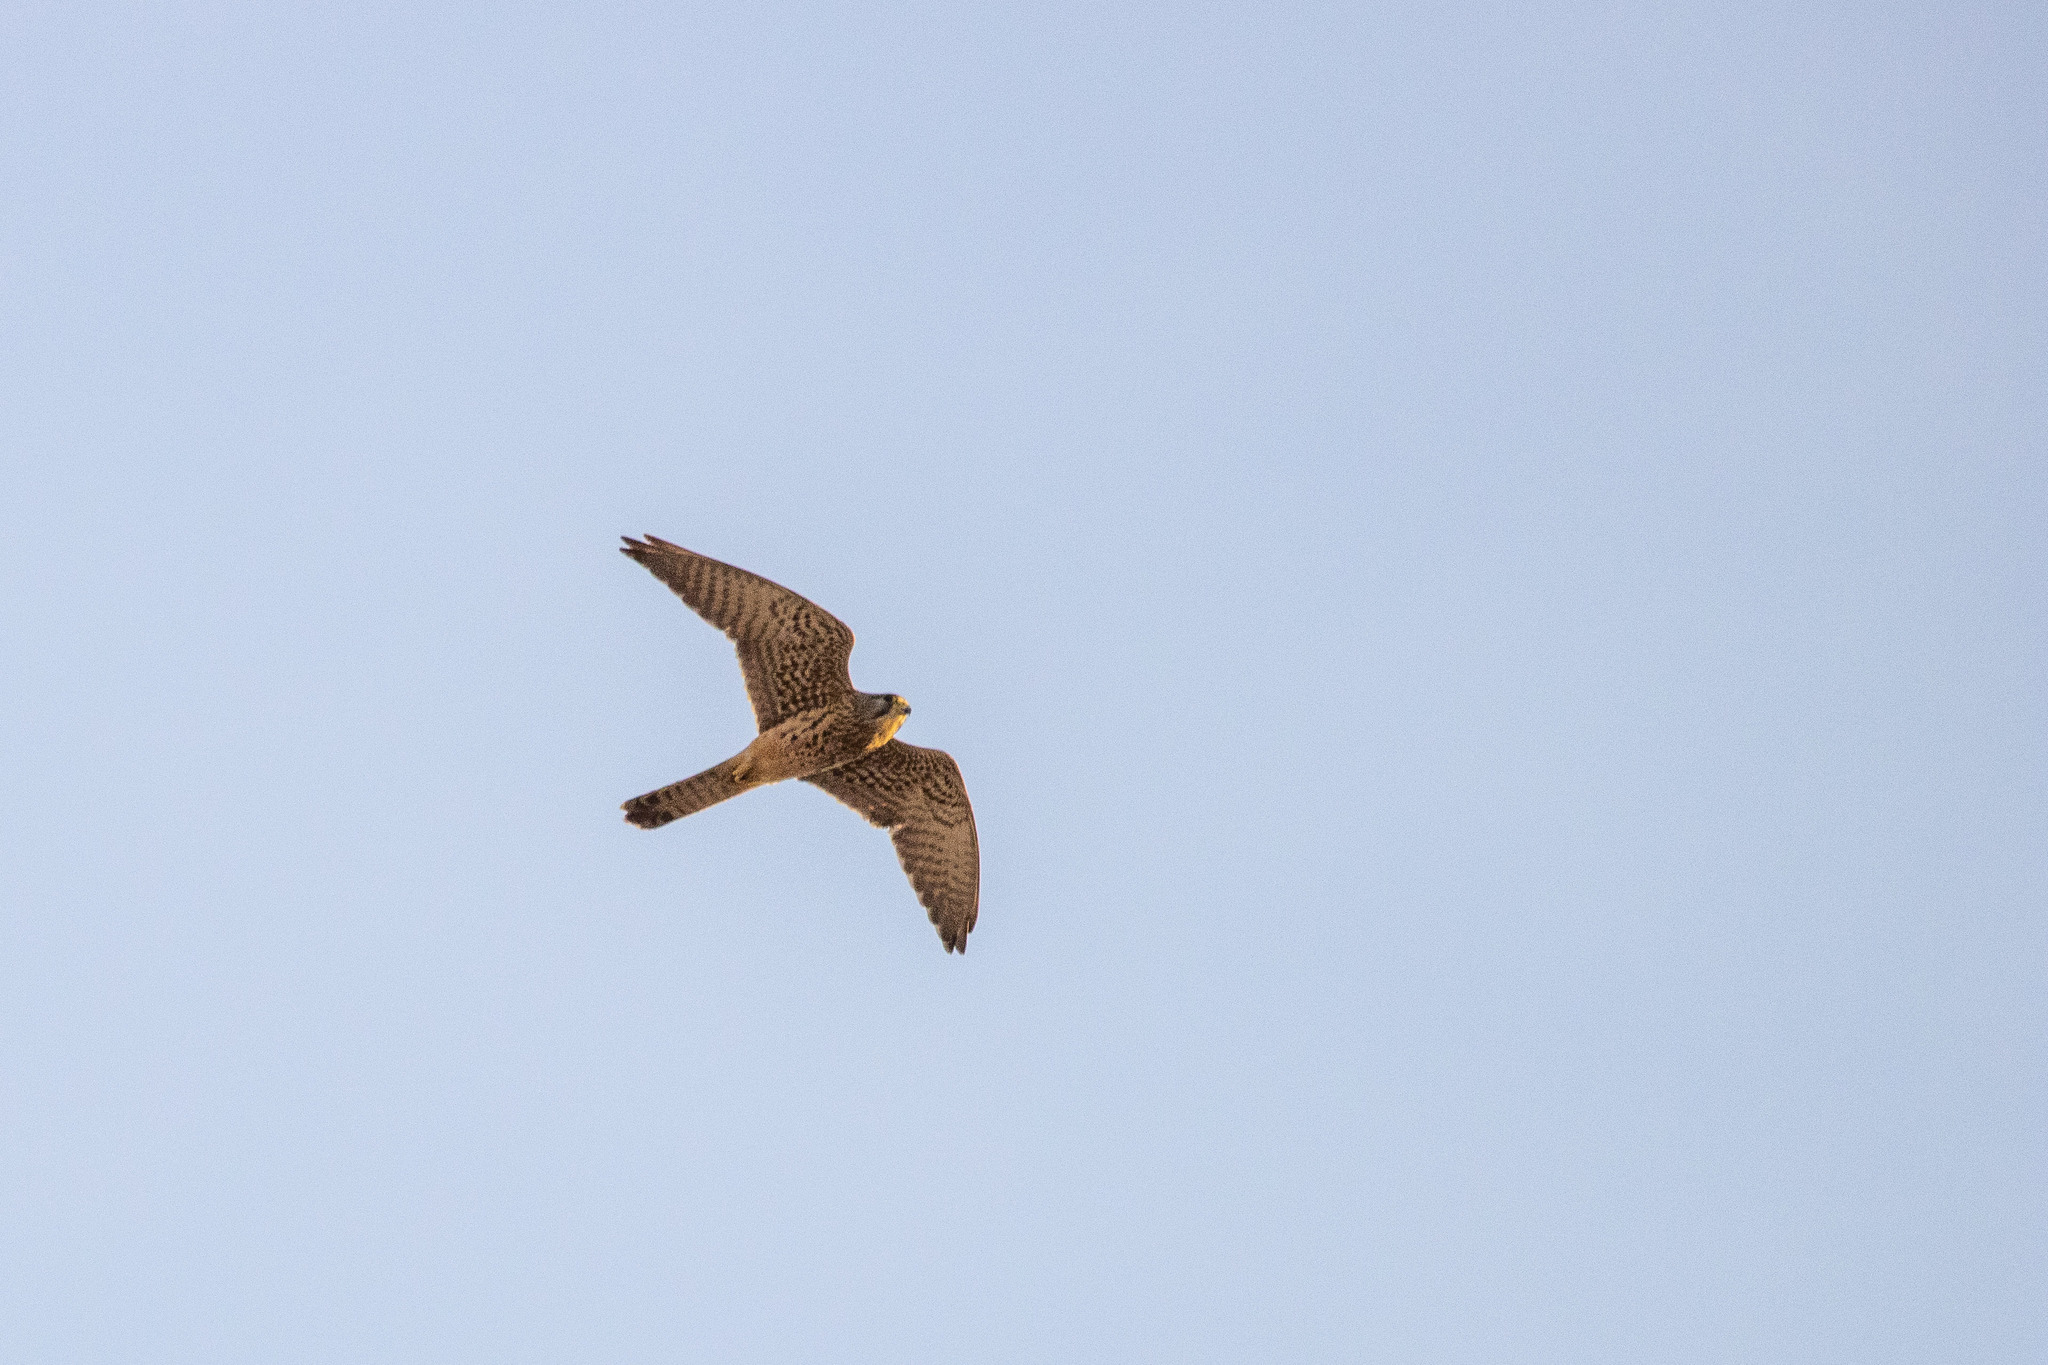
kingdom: Animalia
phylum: Chordata
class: Aves
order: Falconiformes
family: Falconidae
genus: Falco
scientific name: Falco tinnunculus
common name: Common kestrel
